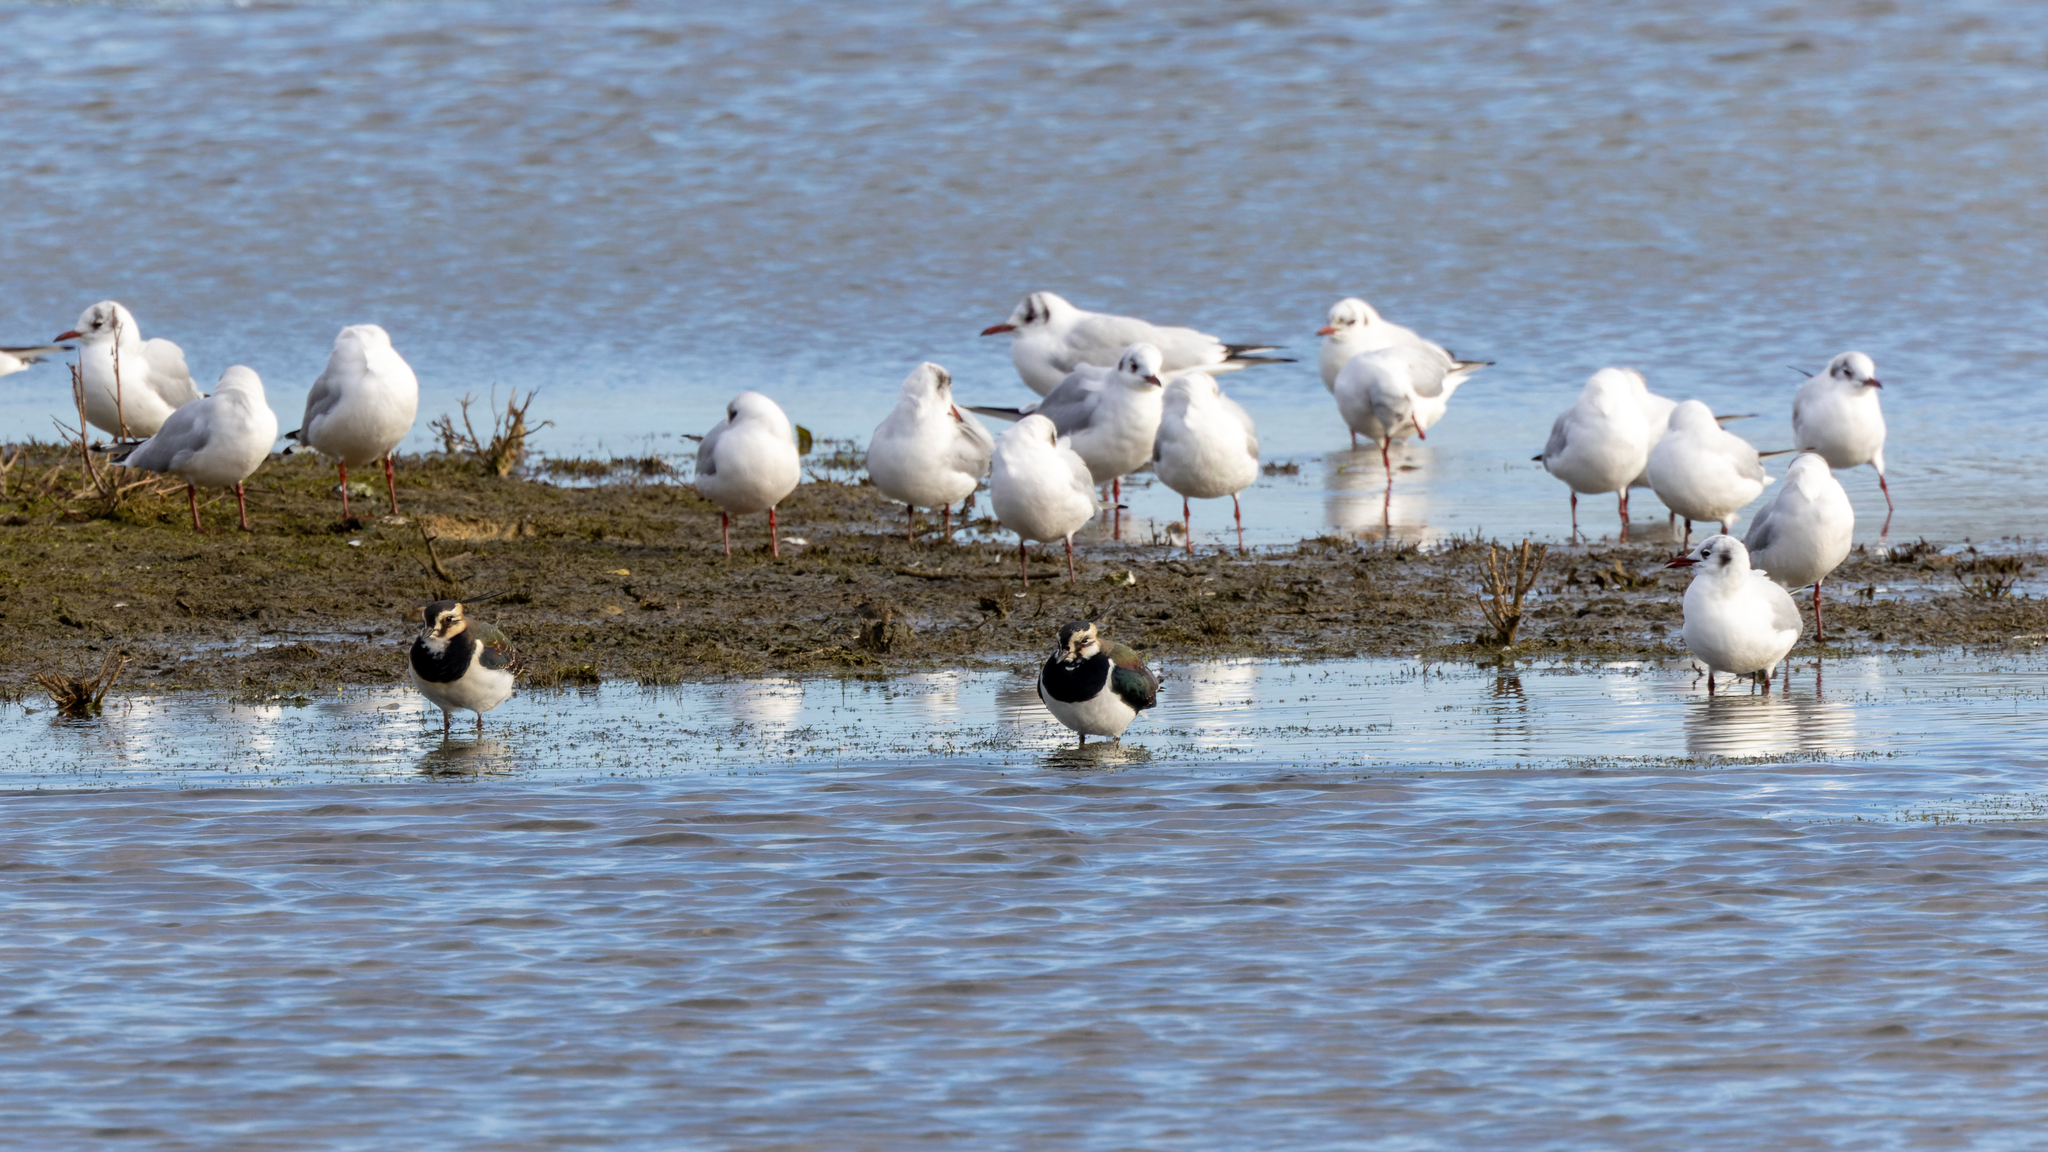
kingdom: Animalia
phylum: Chordata
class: Aves
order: Charadriiformes
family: Laridae
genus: Chroicocephalus
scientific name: Chroicocephalus ridibundus
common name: Black-headed gull
